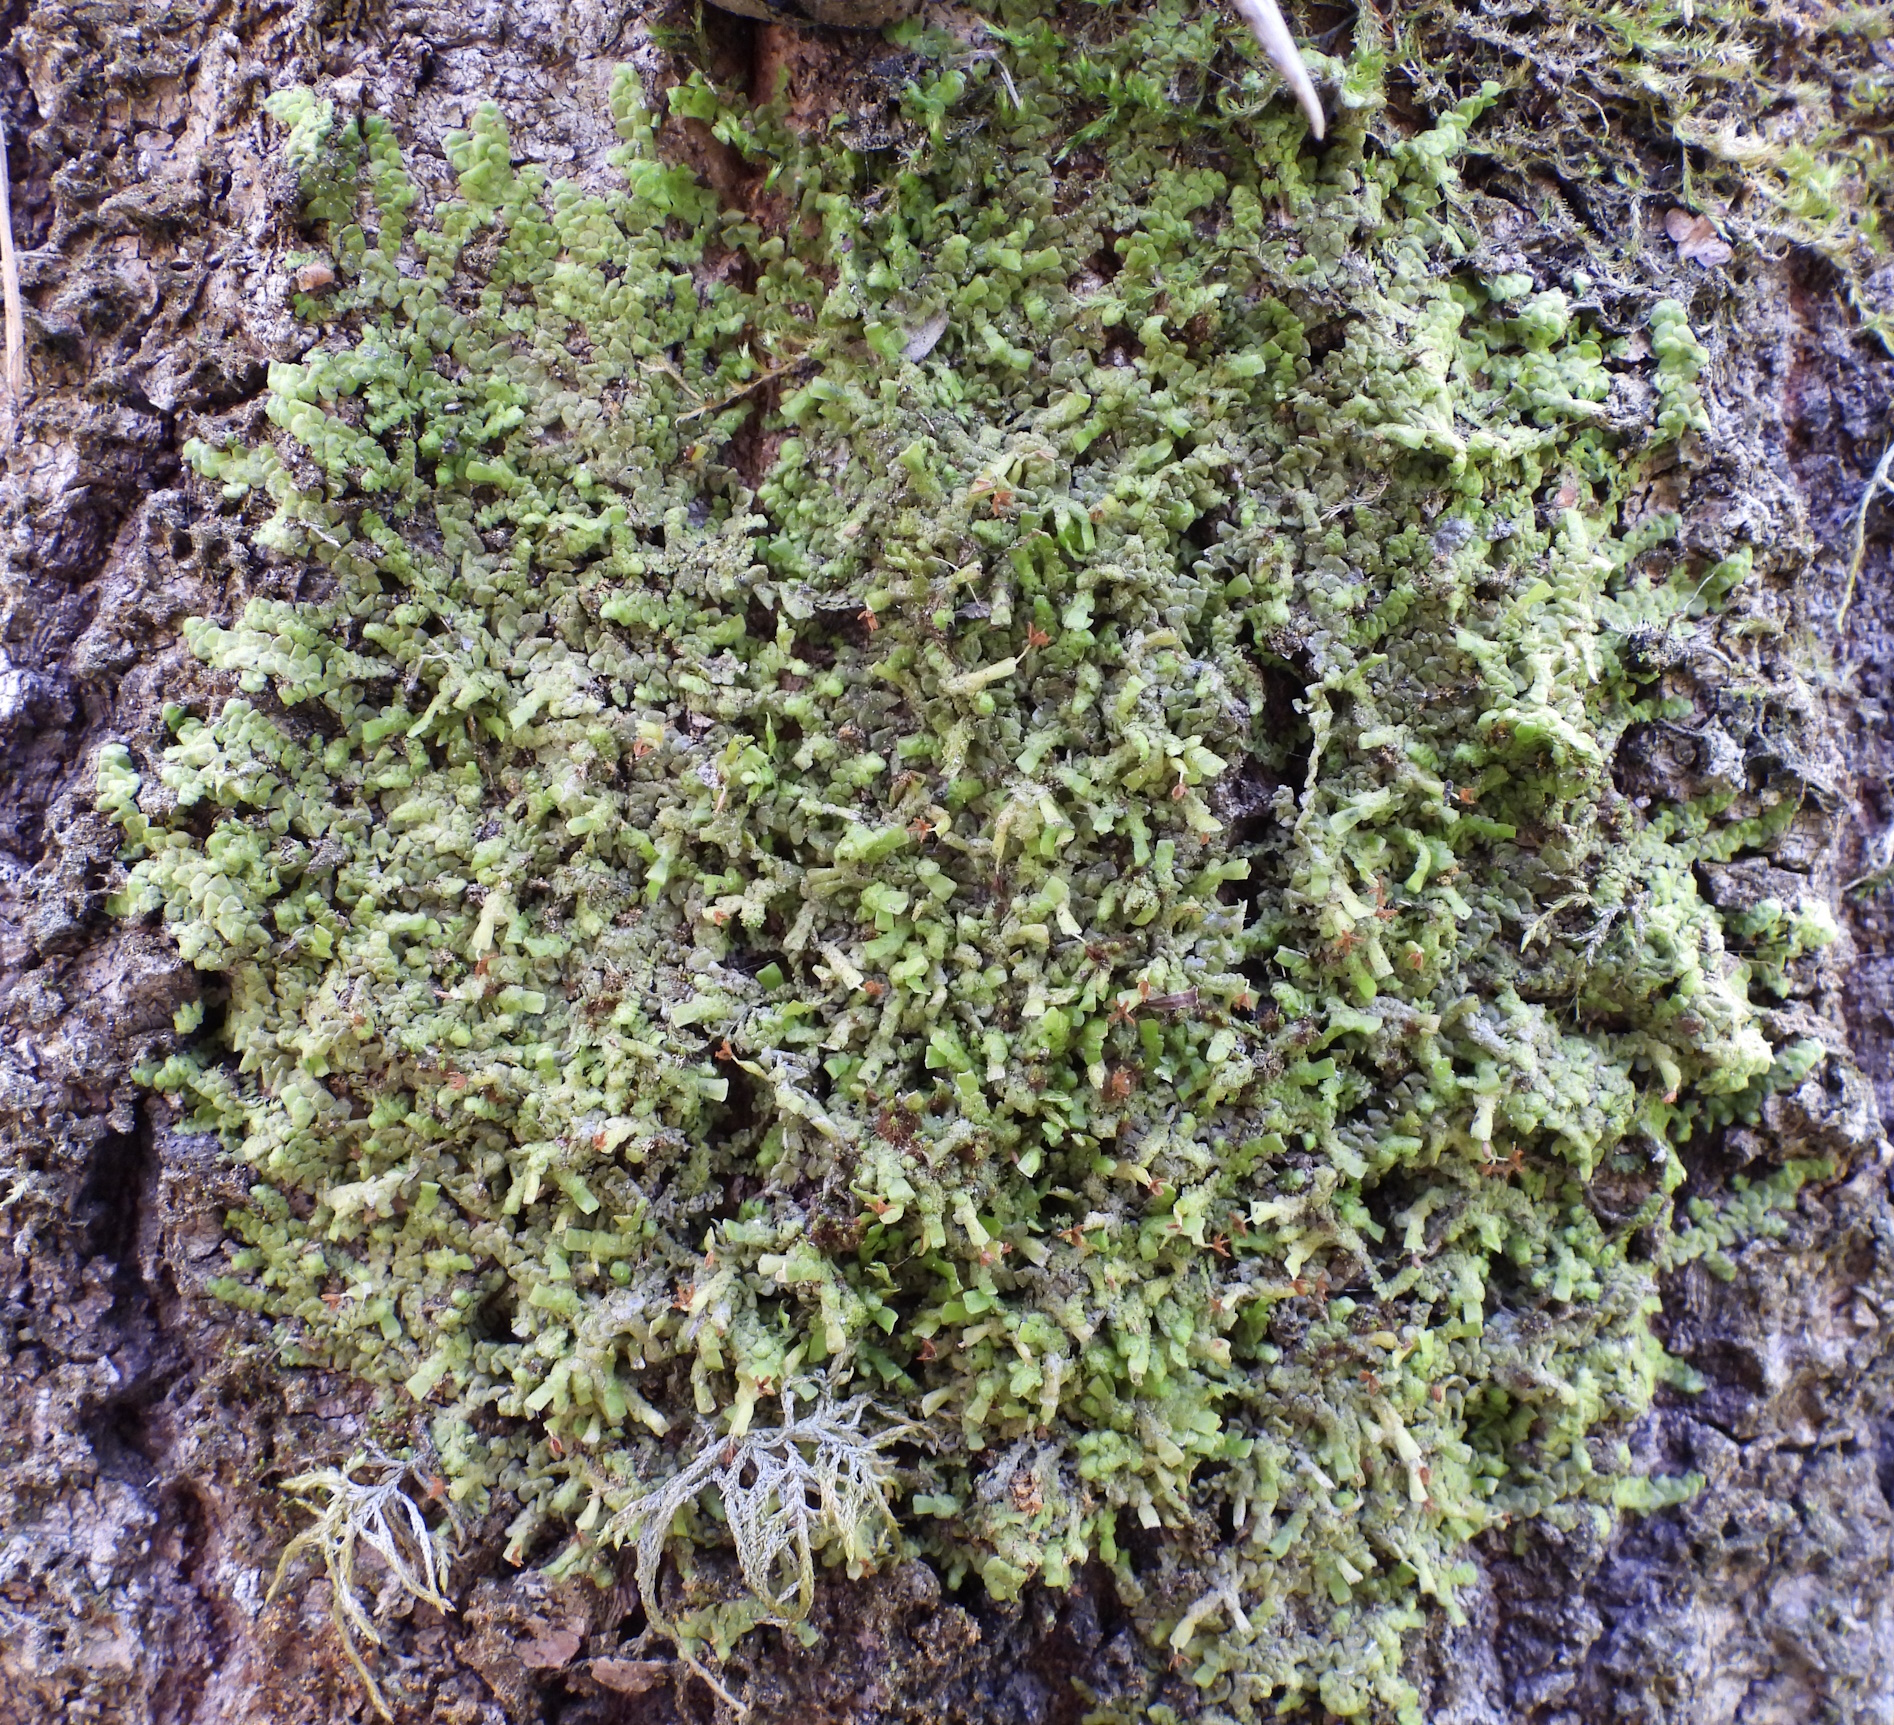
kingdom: Plantae
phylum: Marchantiophyta
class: Jungermanniopsida
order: Porellales
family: Radulaceae
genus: Radula
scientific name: Radula complanata
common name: Flat-leaved scalewort
